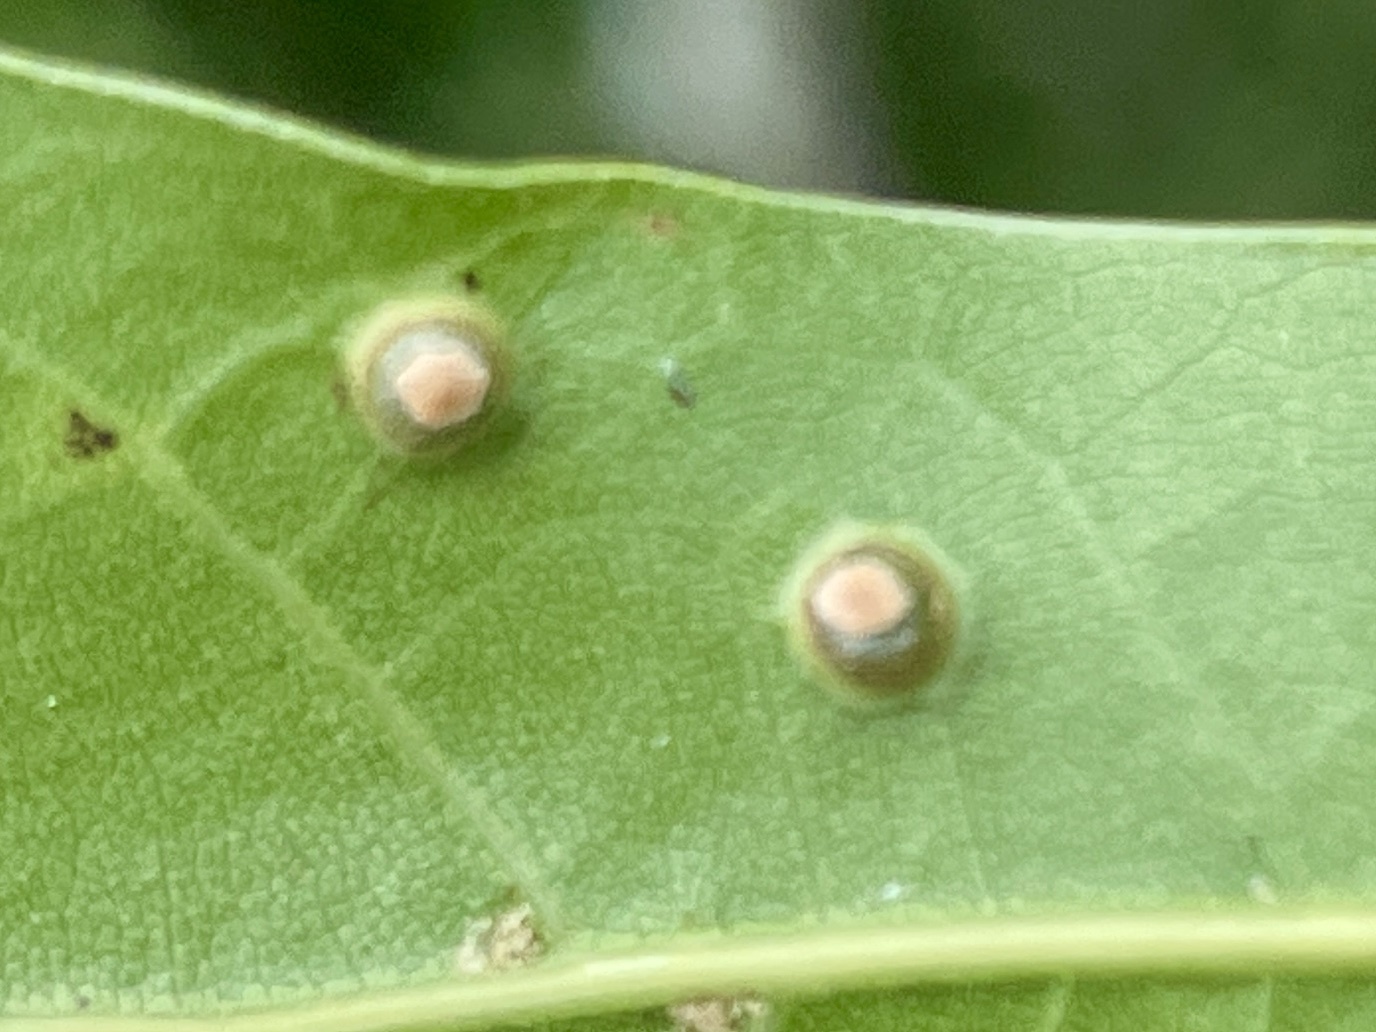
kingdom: Animalia
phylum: Arthropoda
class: Insecta
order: Diptera
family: Cecidomyiidae
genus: Polystepha
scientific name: Polystepha globosa
